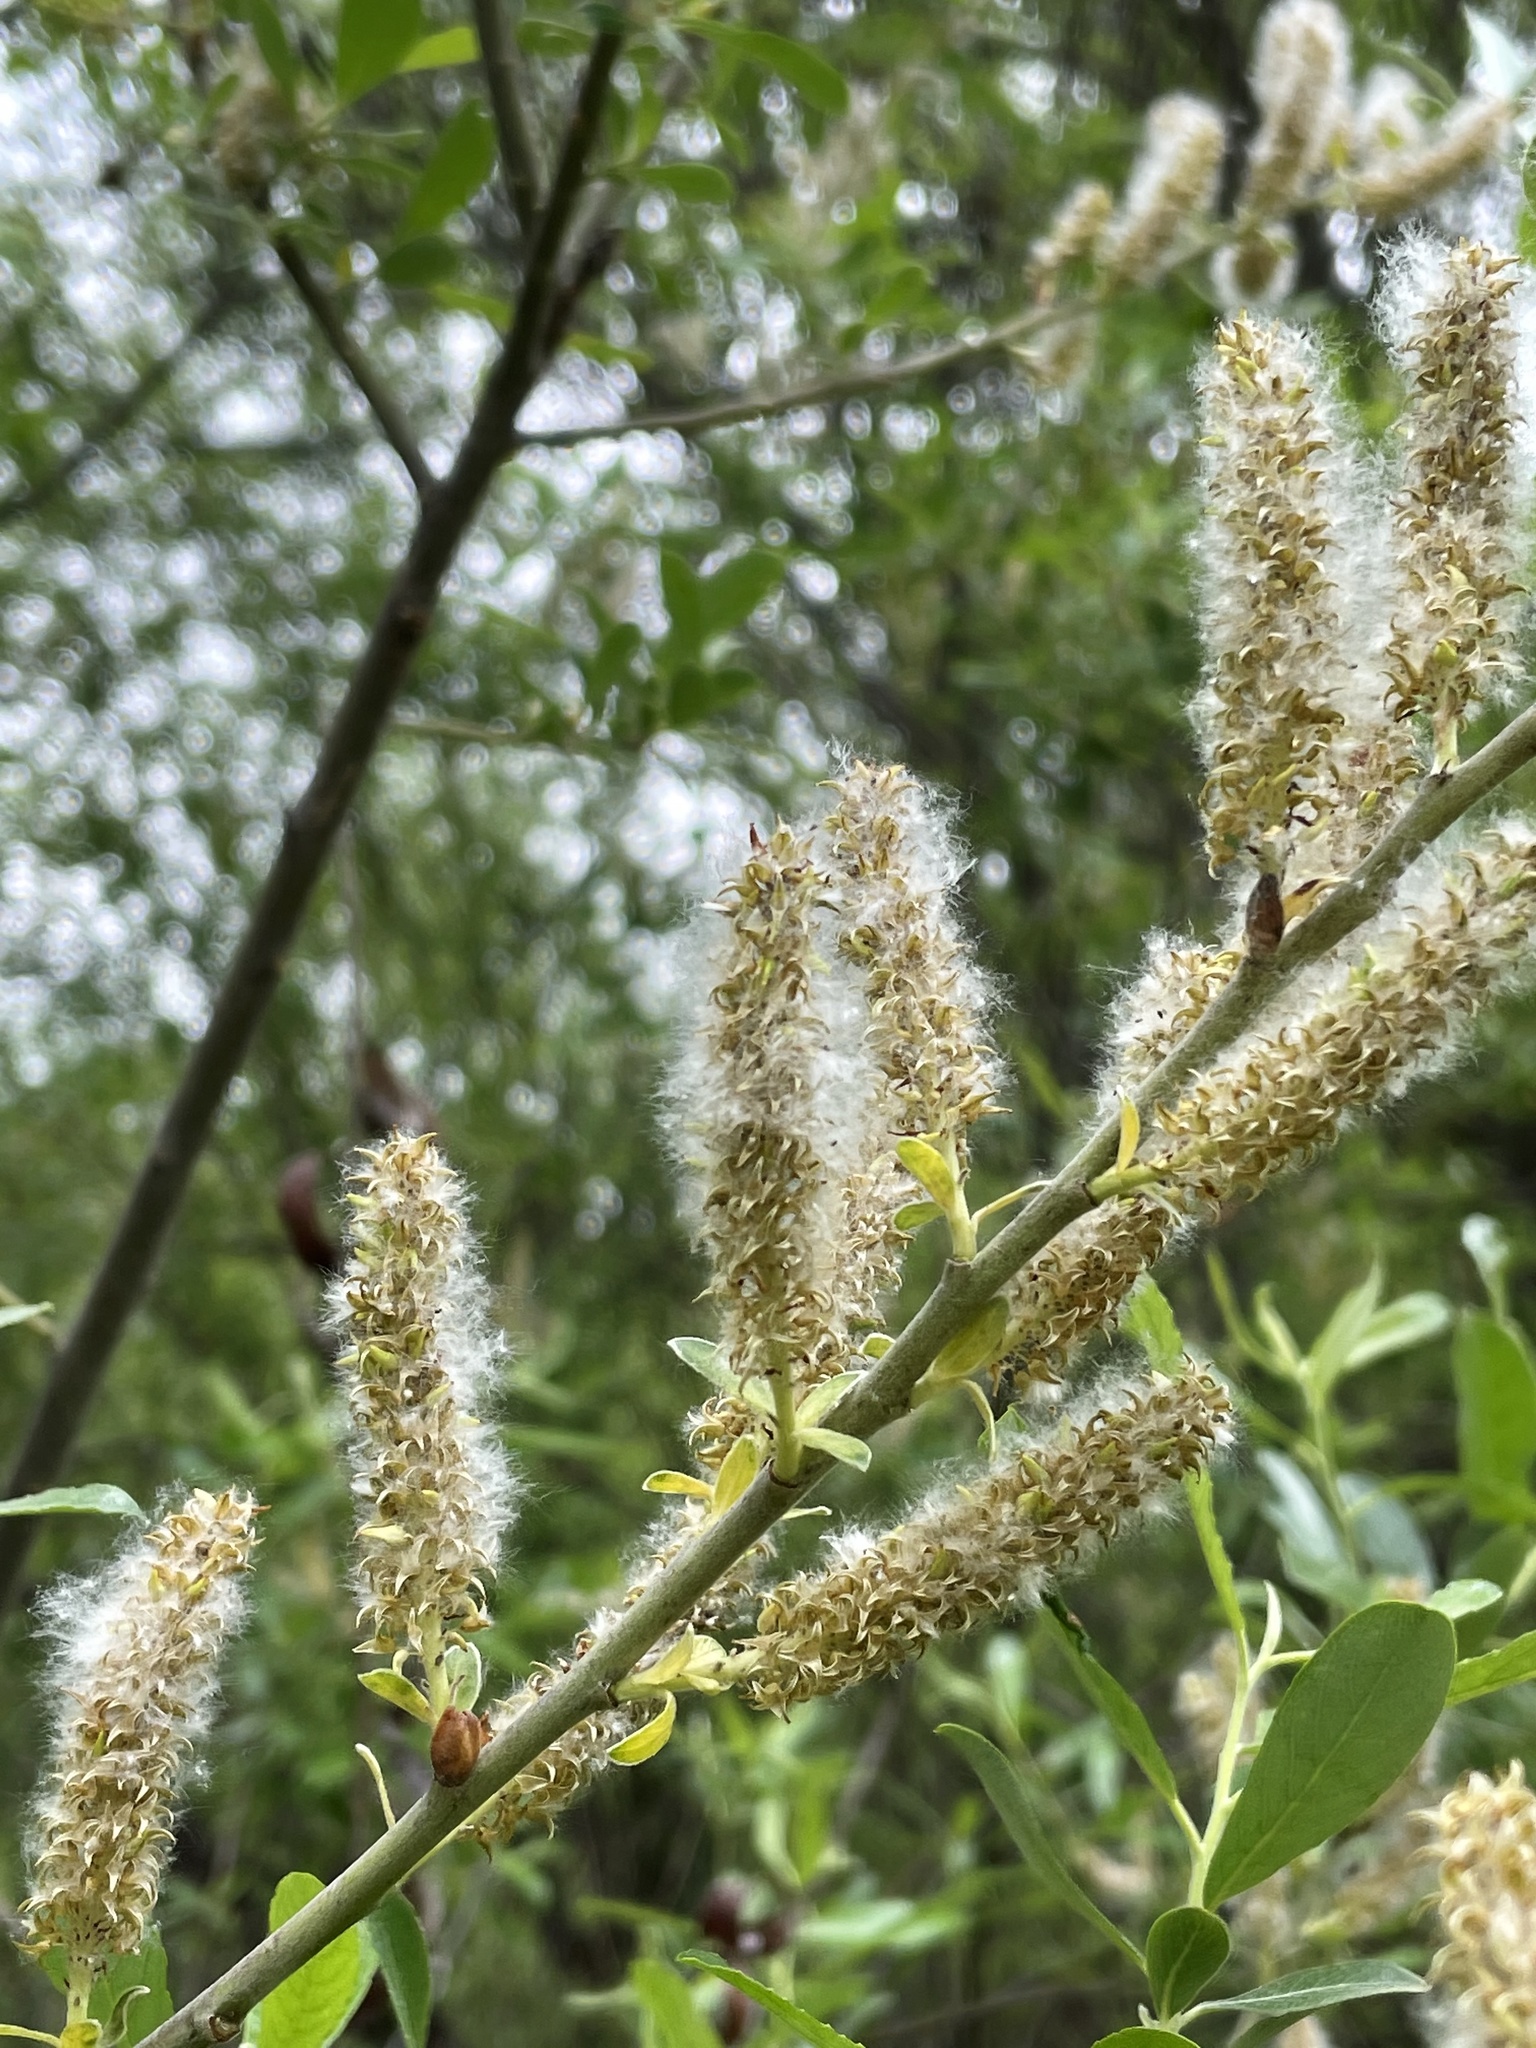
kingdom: Plantae
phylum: Tracheophyta
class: Magnoliopsida
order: Malpighiales
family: Salicaceae
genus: Salix
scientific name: Salix lasiolepis
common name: Arroyo willow
